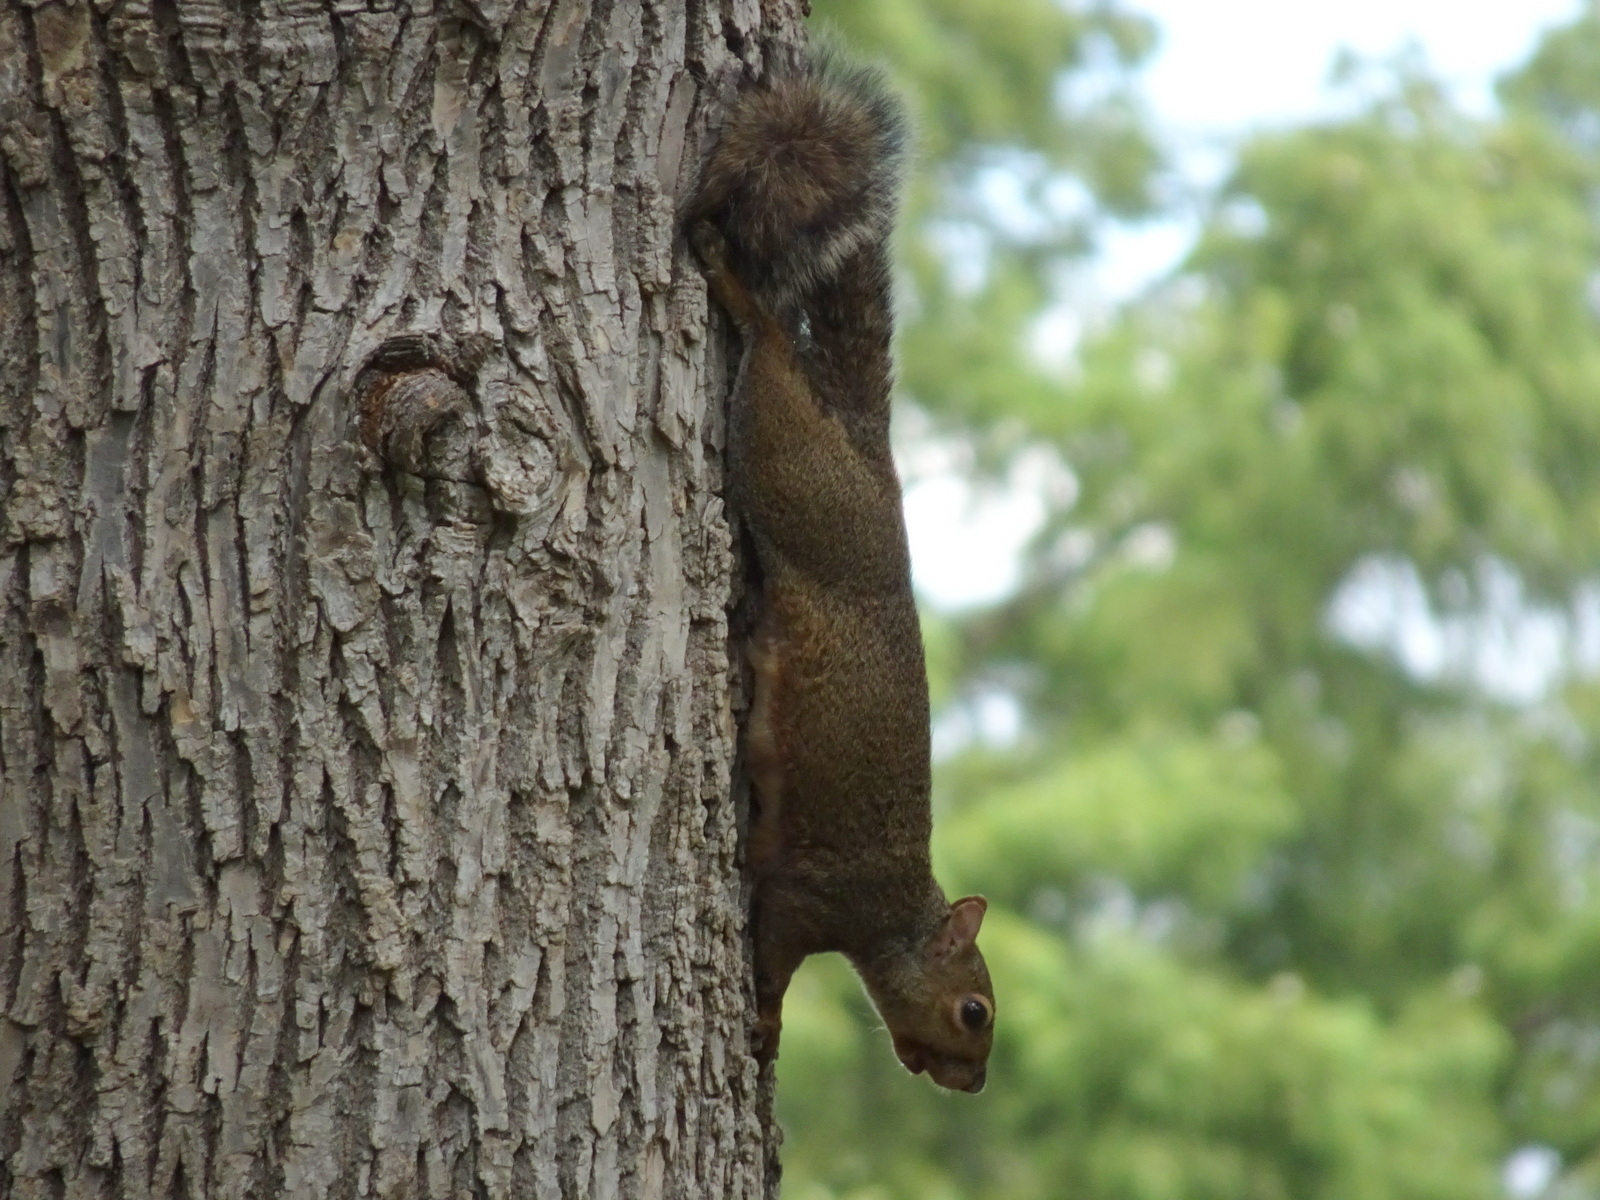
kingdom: Animalia
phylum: Chordata
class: Mammalia
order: Rodentia
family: Sciuridae
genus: Sciurus
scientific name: Sciurus carolinensis
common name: Eastern gray squirrel
